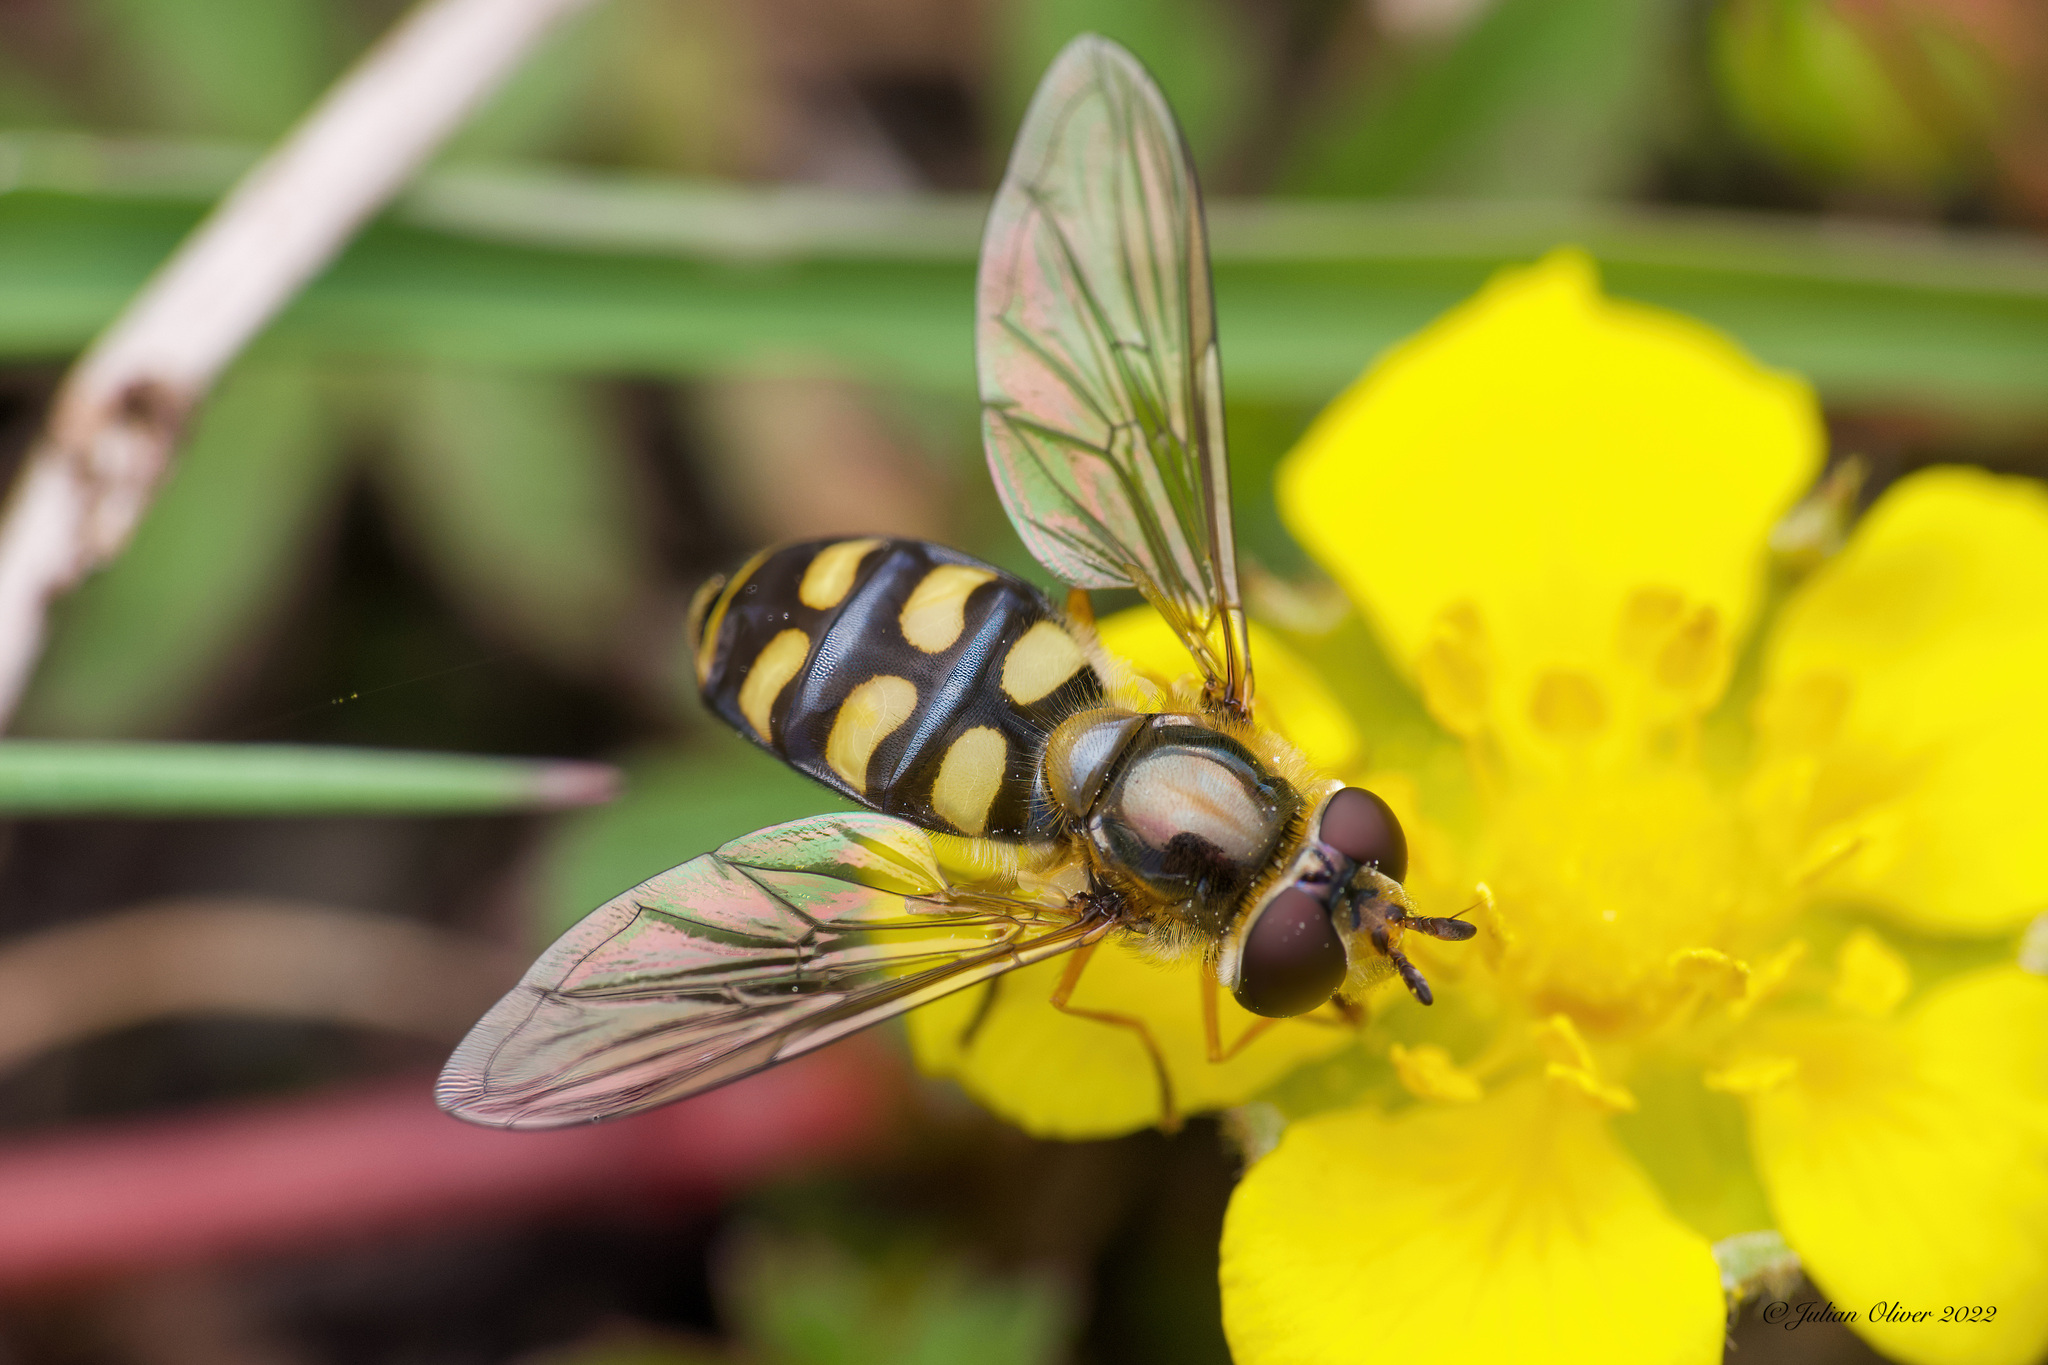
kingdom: Animalia
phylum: Arthropoda
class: Insecta
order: Diptera
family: Syrphidae
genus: Eupeodes
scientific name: Eupeodes luniger
